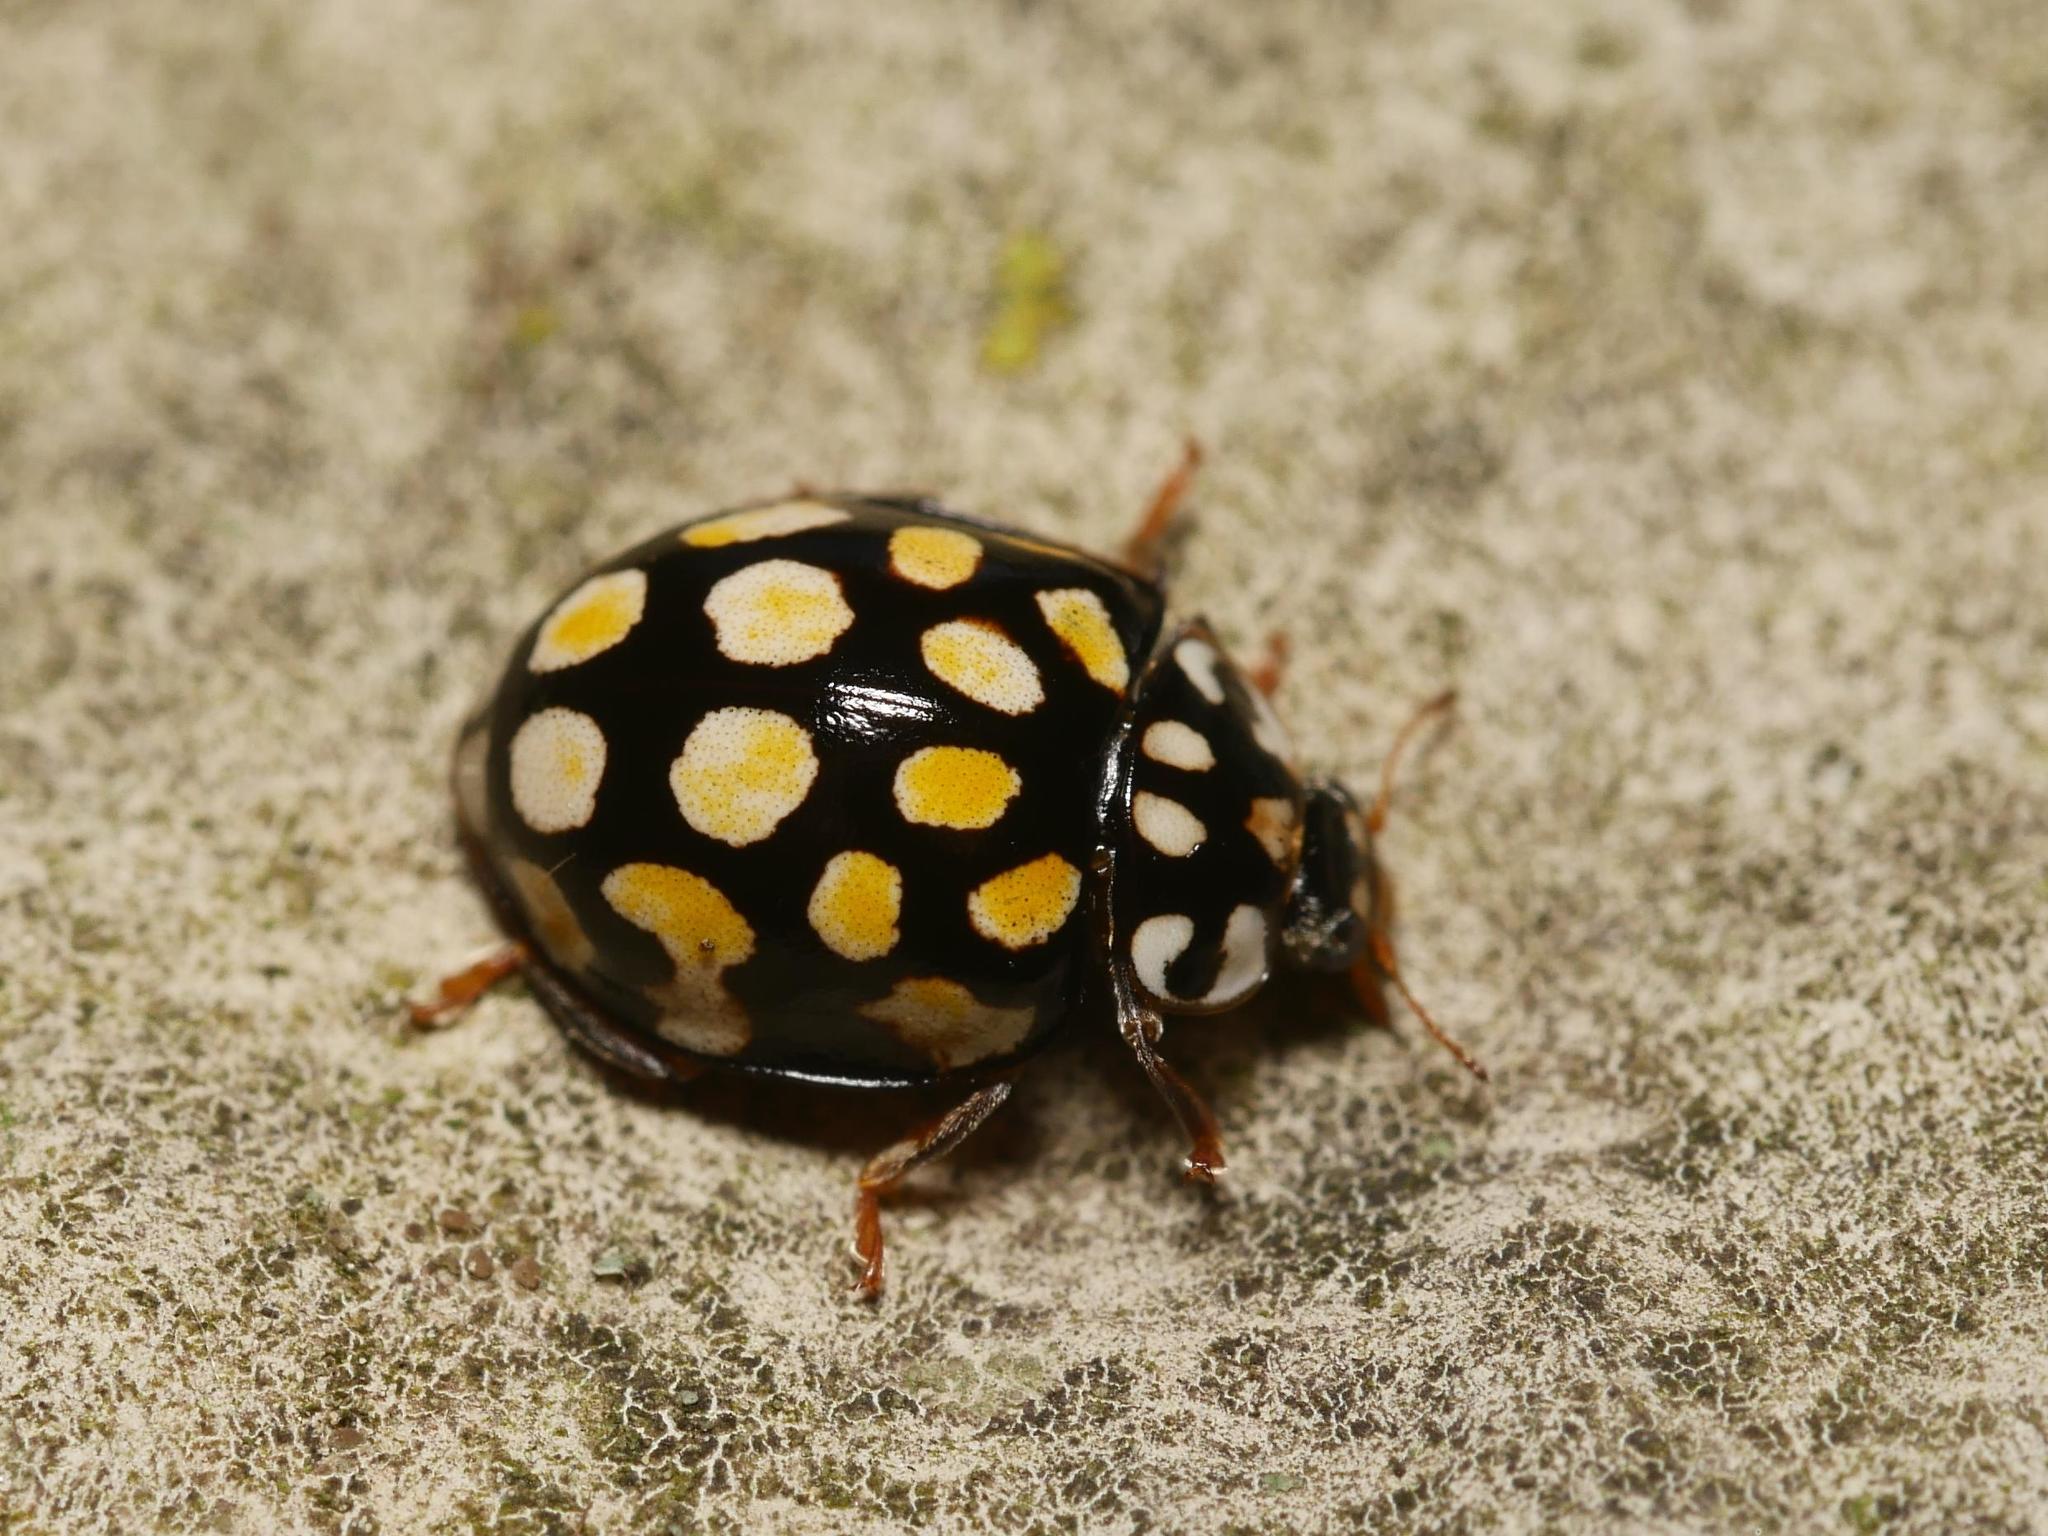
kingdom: Animalia
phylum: Arthropoda
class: Insecta
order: Coleoptera
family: Coccinellidae
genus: Sospita
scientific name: Sospita vigintiguttata
